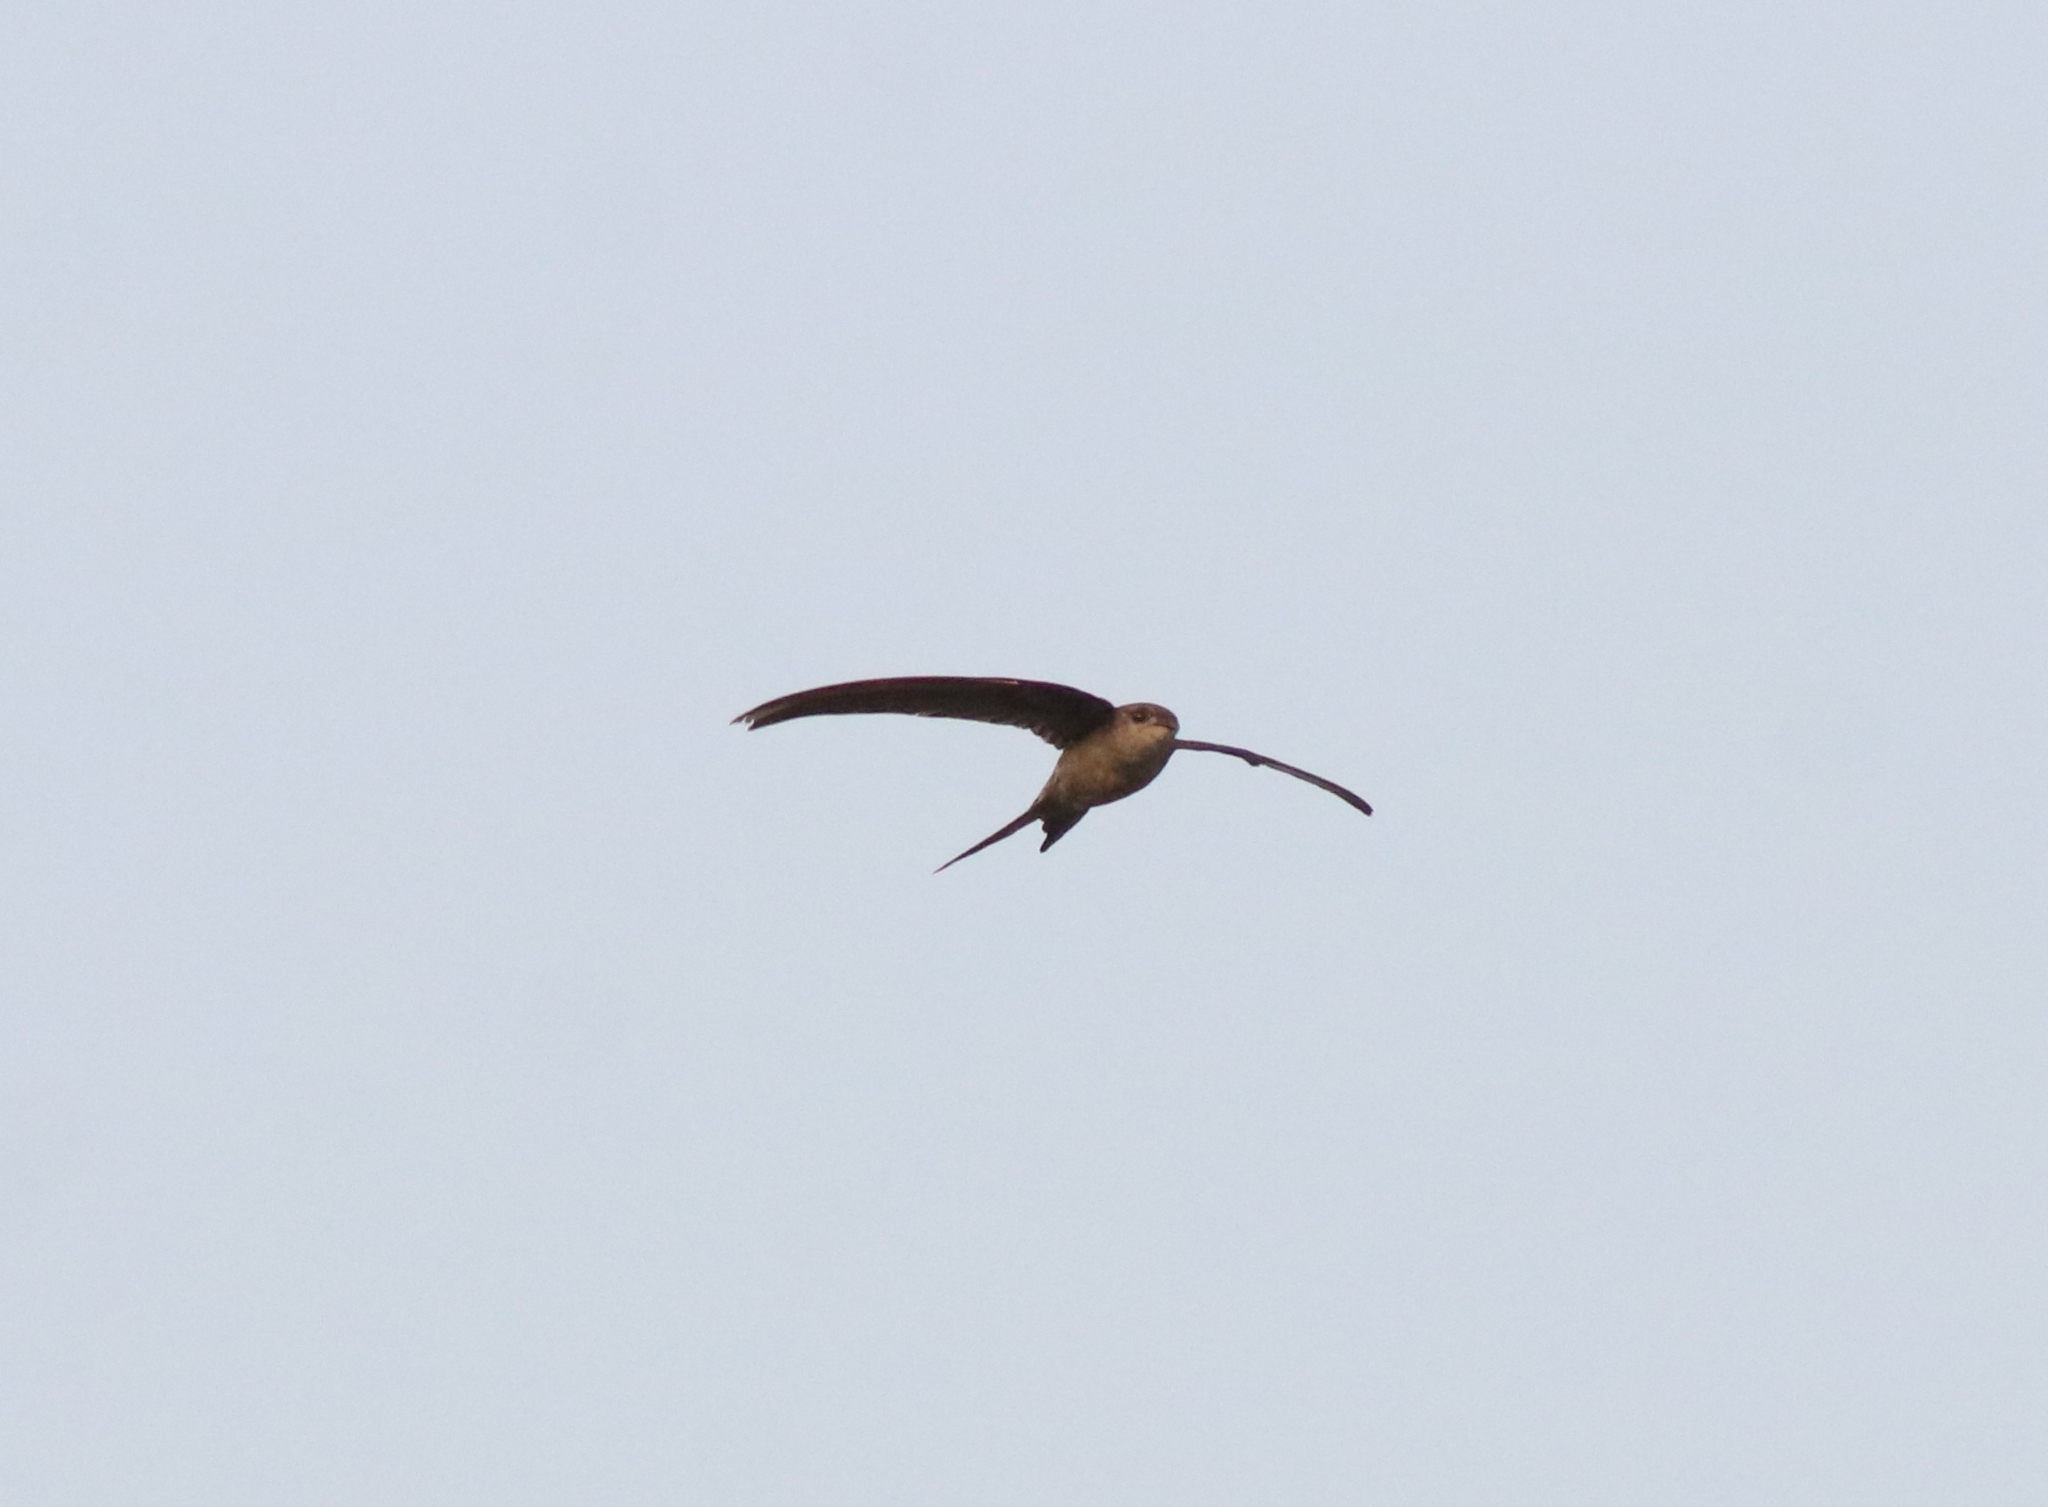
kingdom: Animalia
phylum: Chordata
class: Aves
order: Apodiformes
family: Apodidae
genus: Cypsiurus
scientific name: Cypsiurus balasiensis
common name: Asian palm swift
